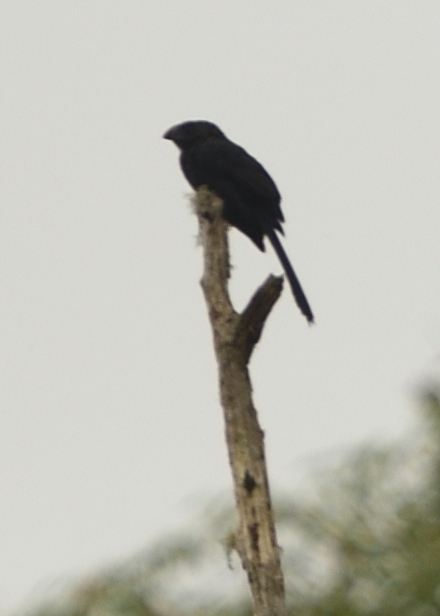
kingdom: Animalia
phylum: Chordata
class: Aves
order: Cuculiformes
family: Cuculidae
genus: Crotophaga
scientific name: Crotophaga ani
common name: Smooth-billed ani
